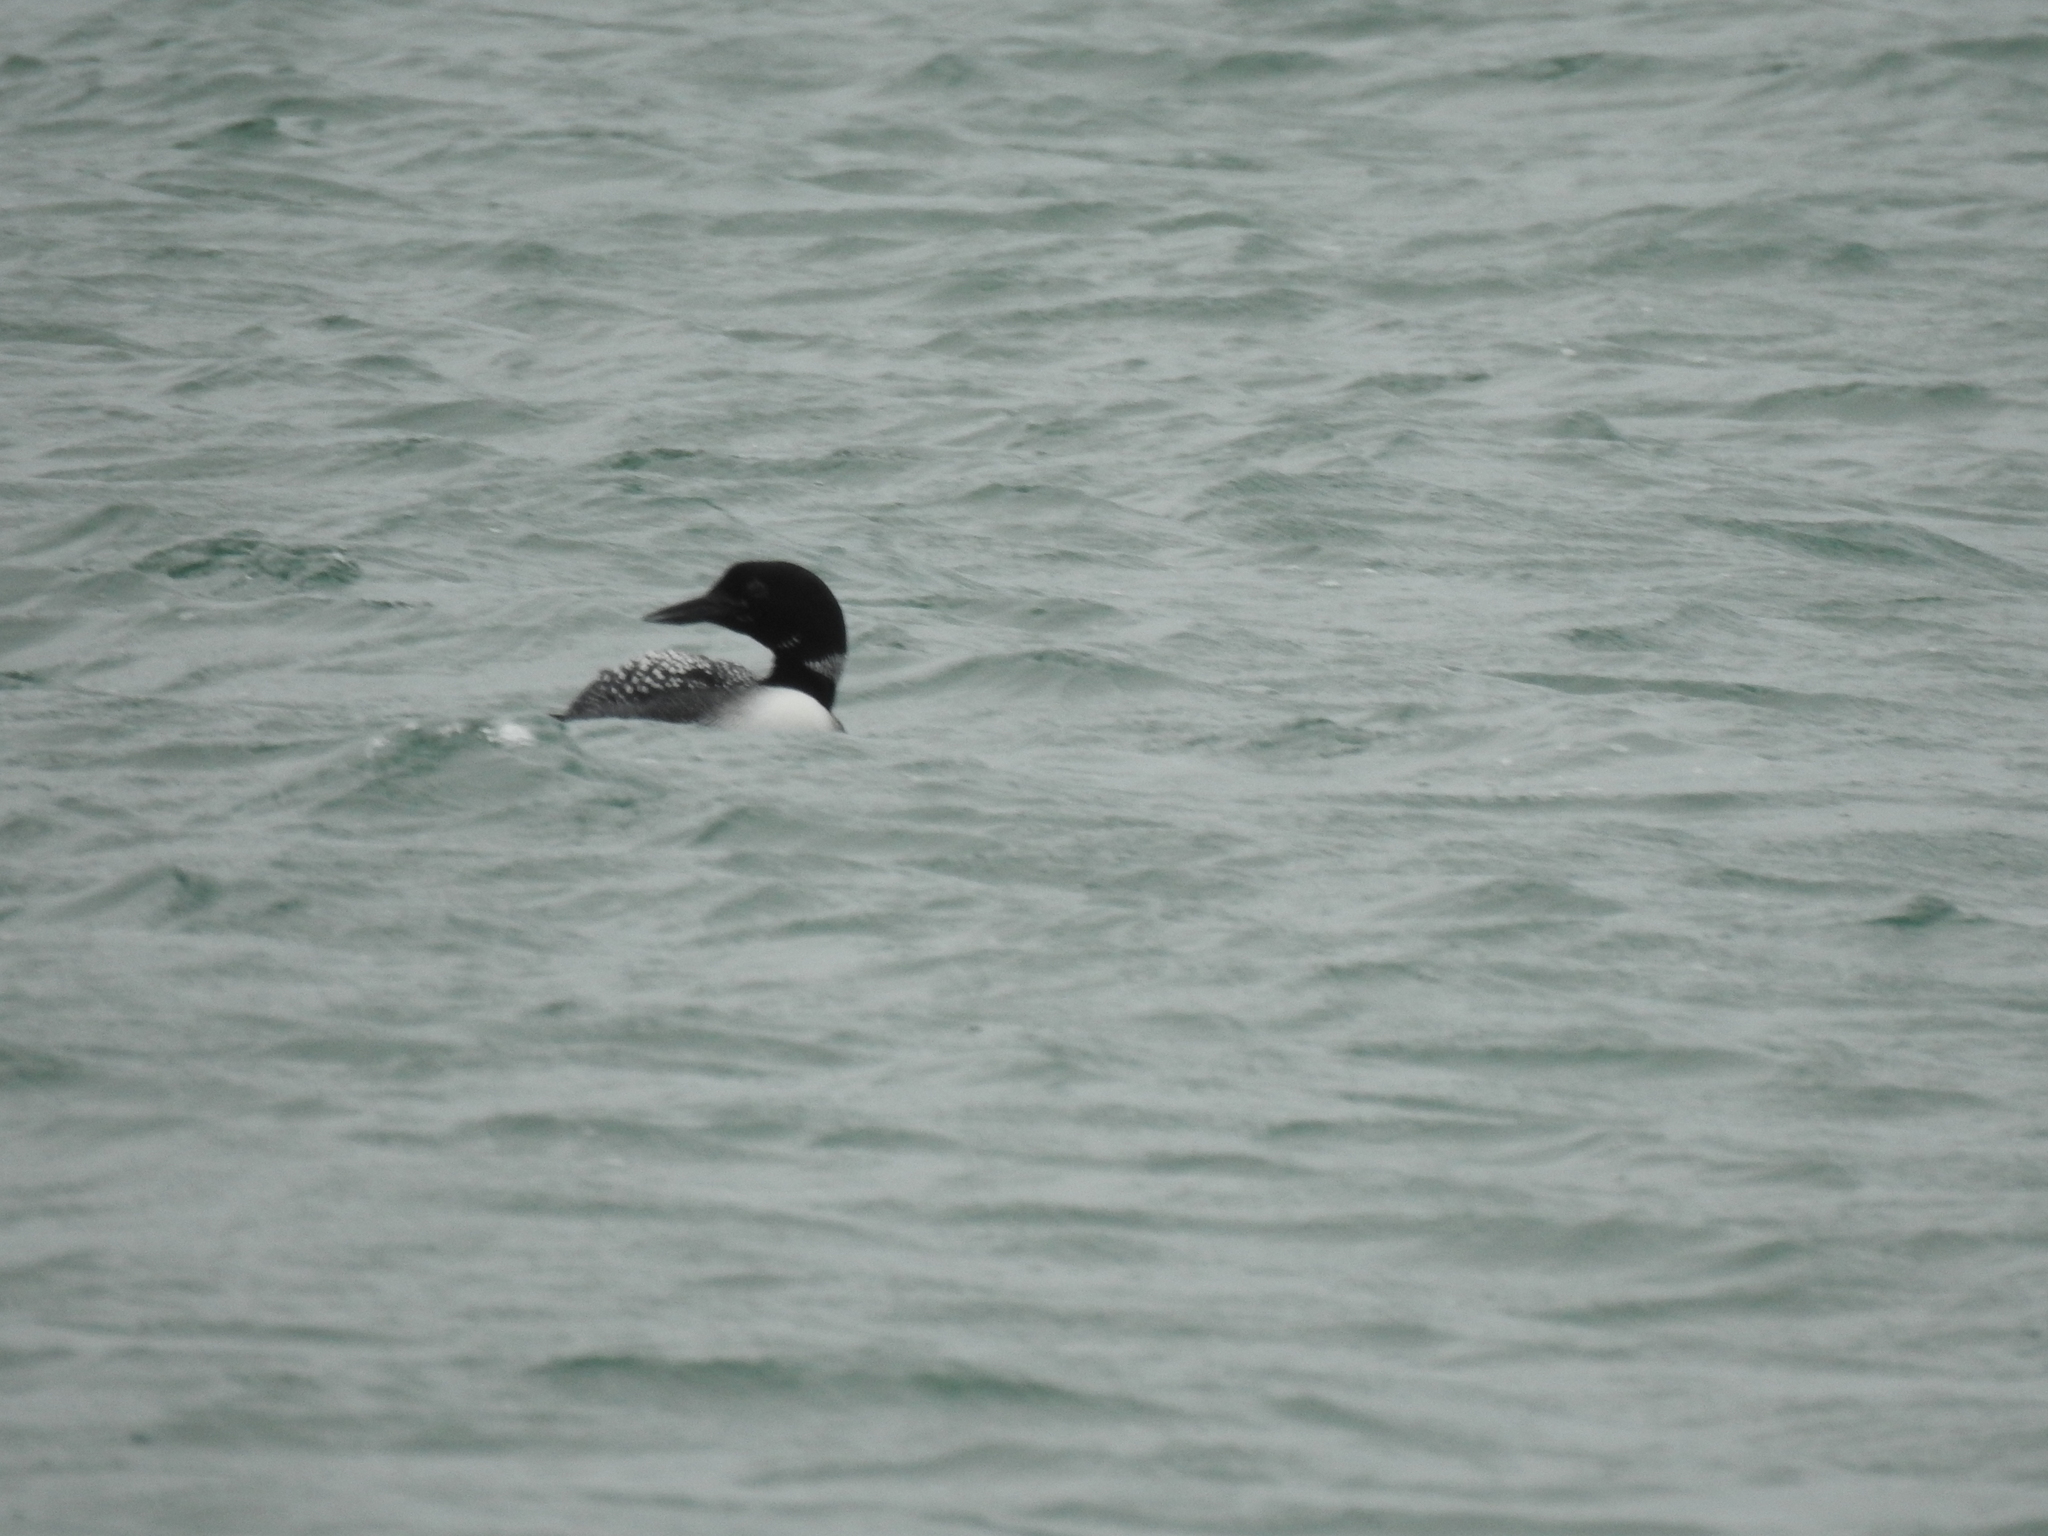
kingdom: Animalia
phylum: Chordata
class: Aves
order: Gaviiformes
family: Gaviidae
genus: Gavia
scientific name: Gavia immer
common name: Common loon
